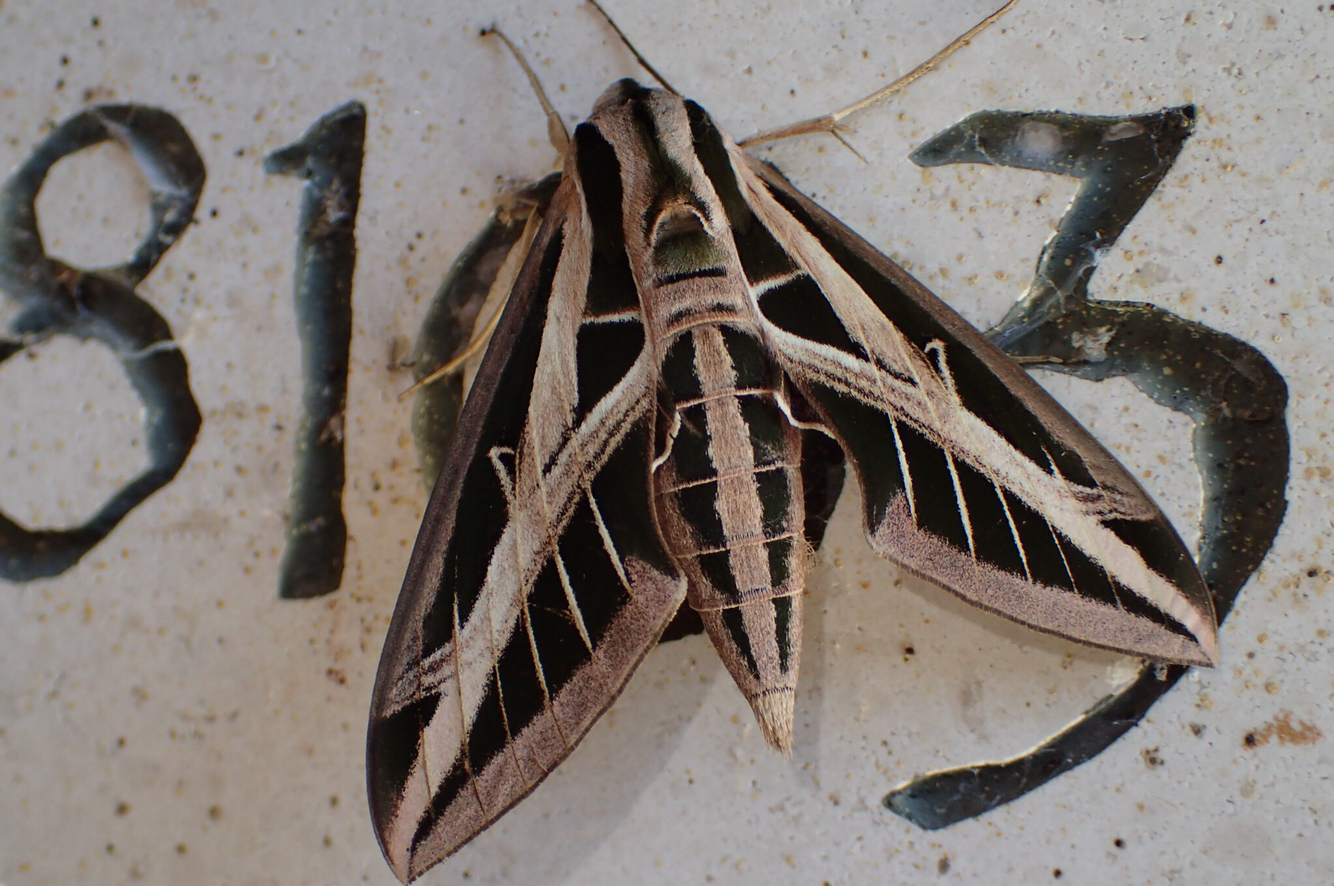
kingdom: Animalia
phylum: Arthropoda
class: Insecta
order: Lepidoptera
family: Sphingidae
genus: Eumorpha
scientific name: Eumorpha fasciatus
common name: Banded sphinx
